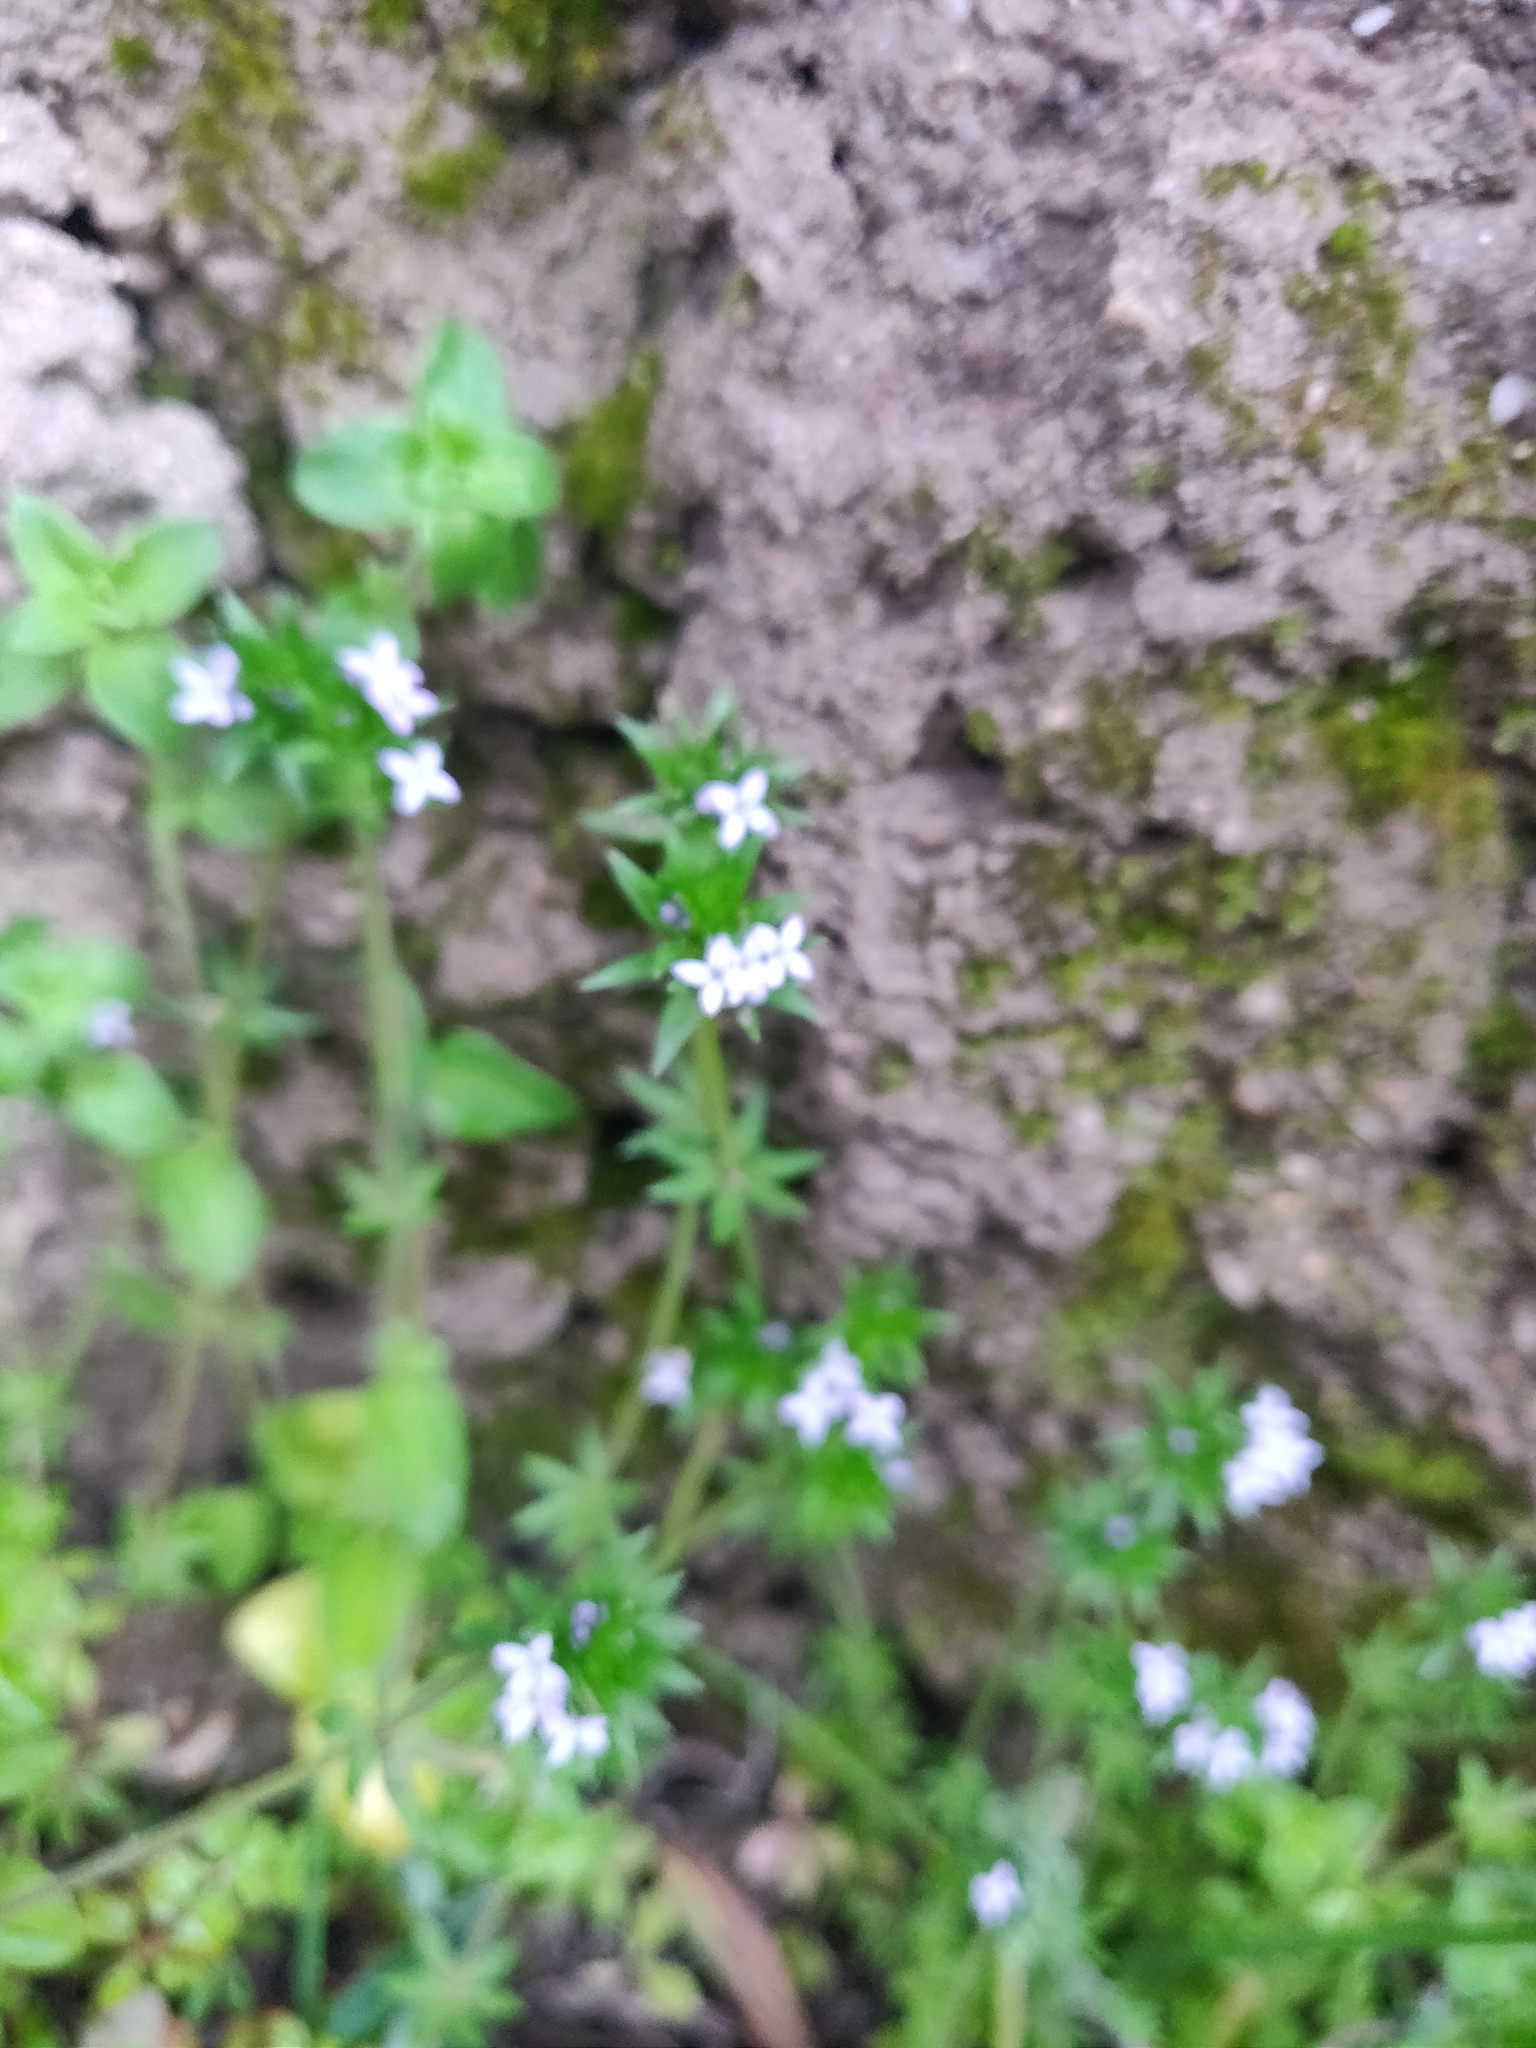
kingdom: Plantae
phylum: Tracheophyta
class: Magnoliopsida
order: Gentianales
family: Rubiaceae
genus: Sherardia
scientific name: Sherardia arvensis
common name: Field madder
